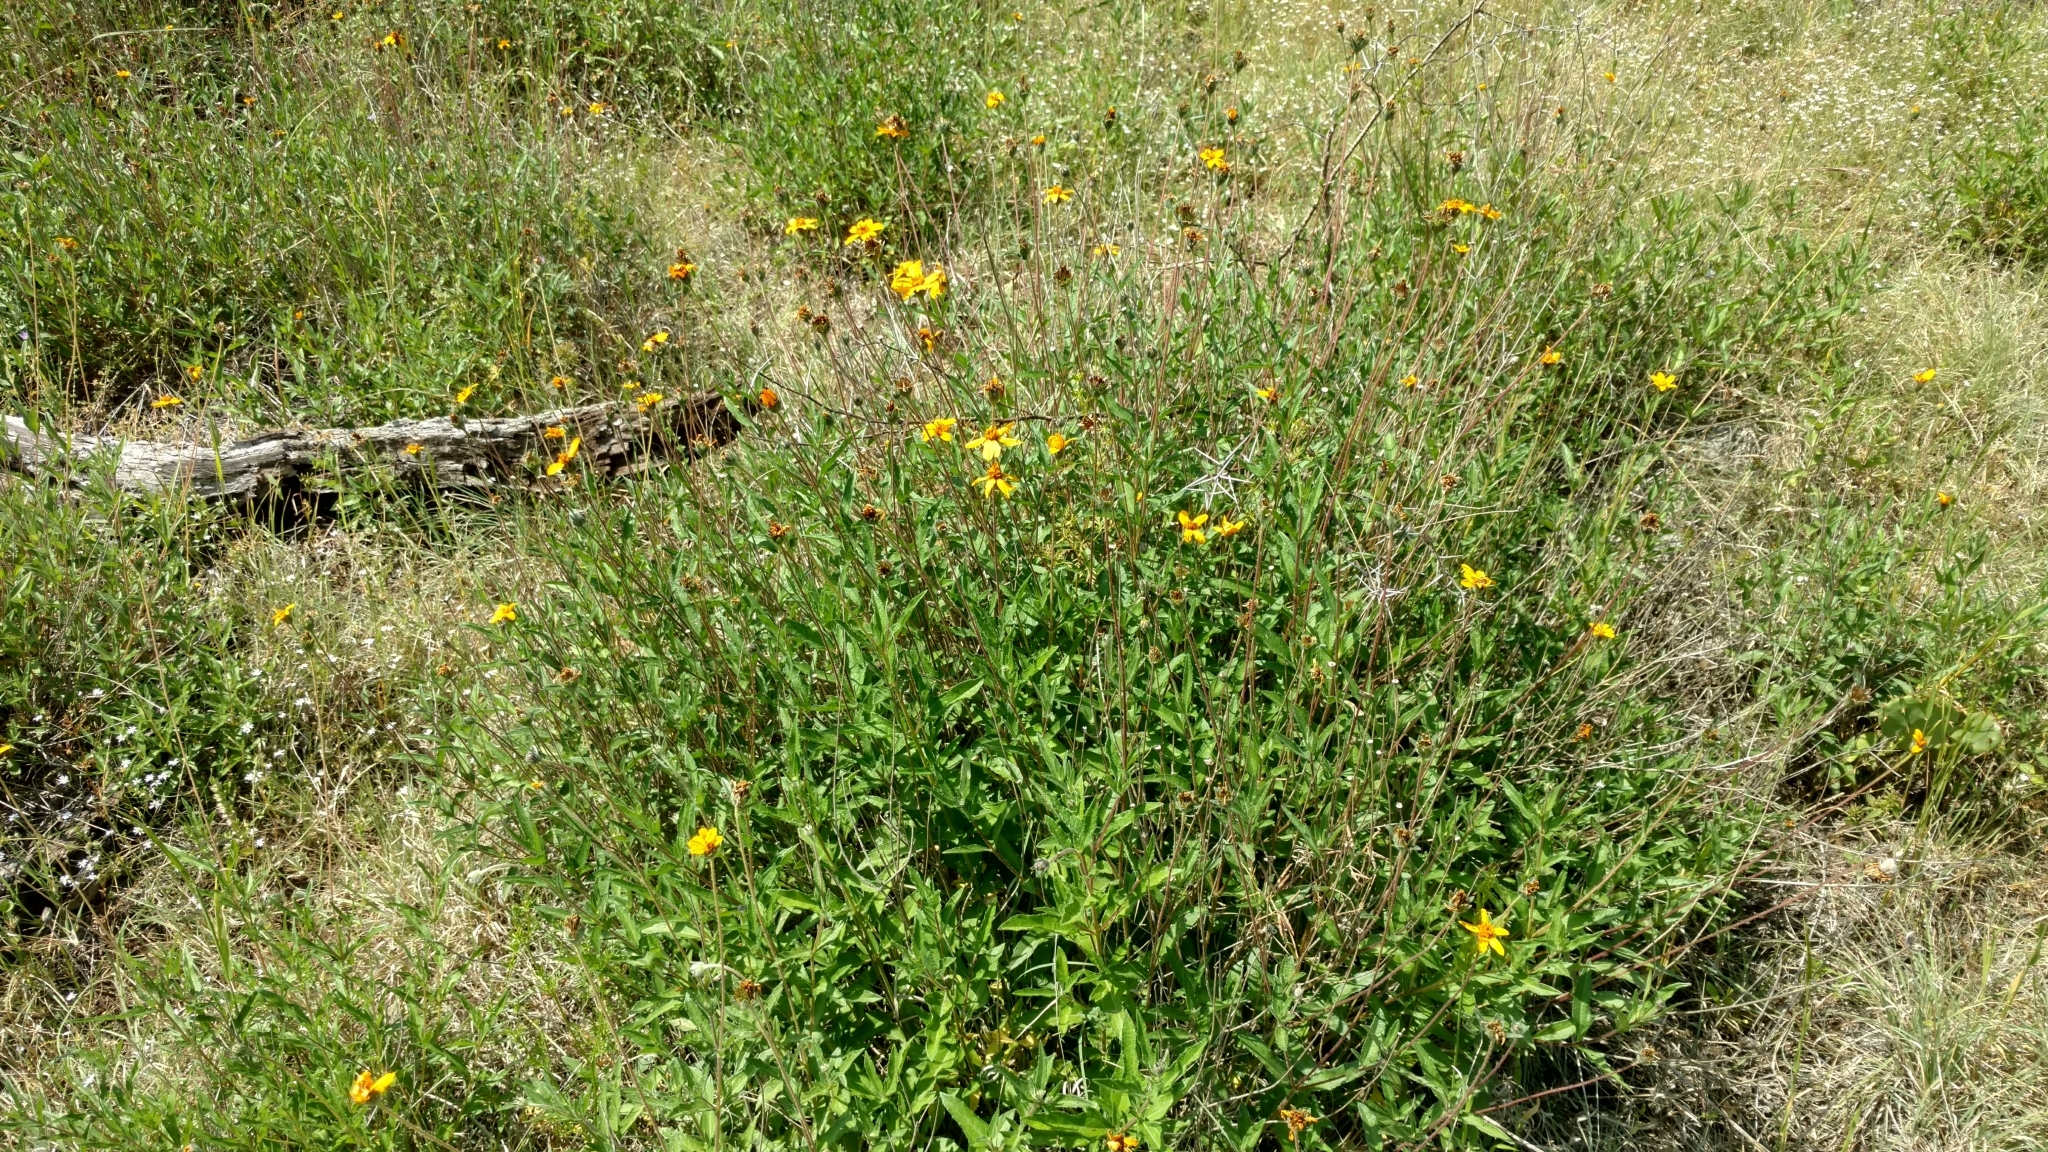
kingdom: Plantae
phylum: Tracheophyta
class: Magnoliopsida
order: Asterales
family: Asteraceae
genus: Wedelia
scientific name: Wedelia acapulcensis
